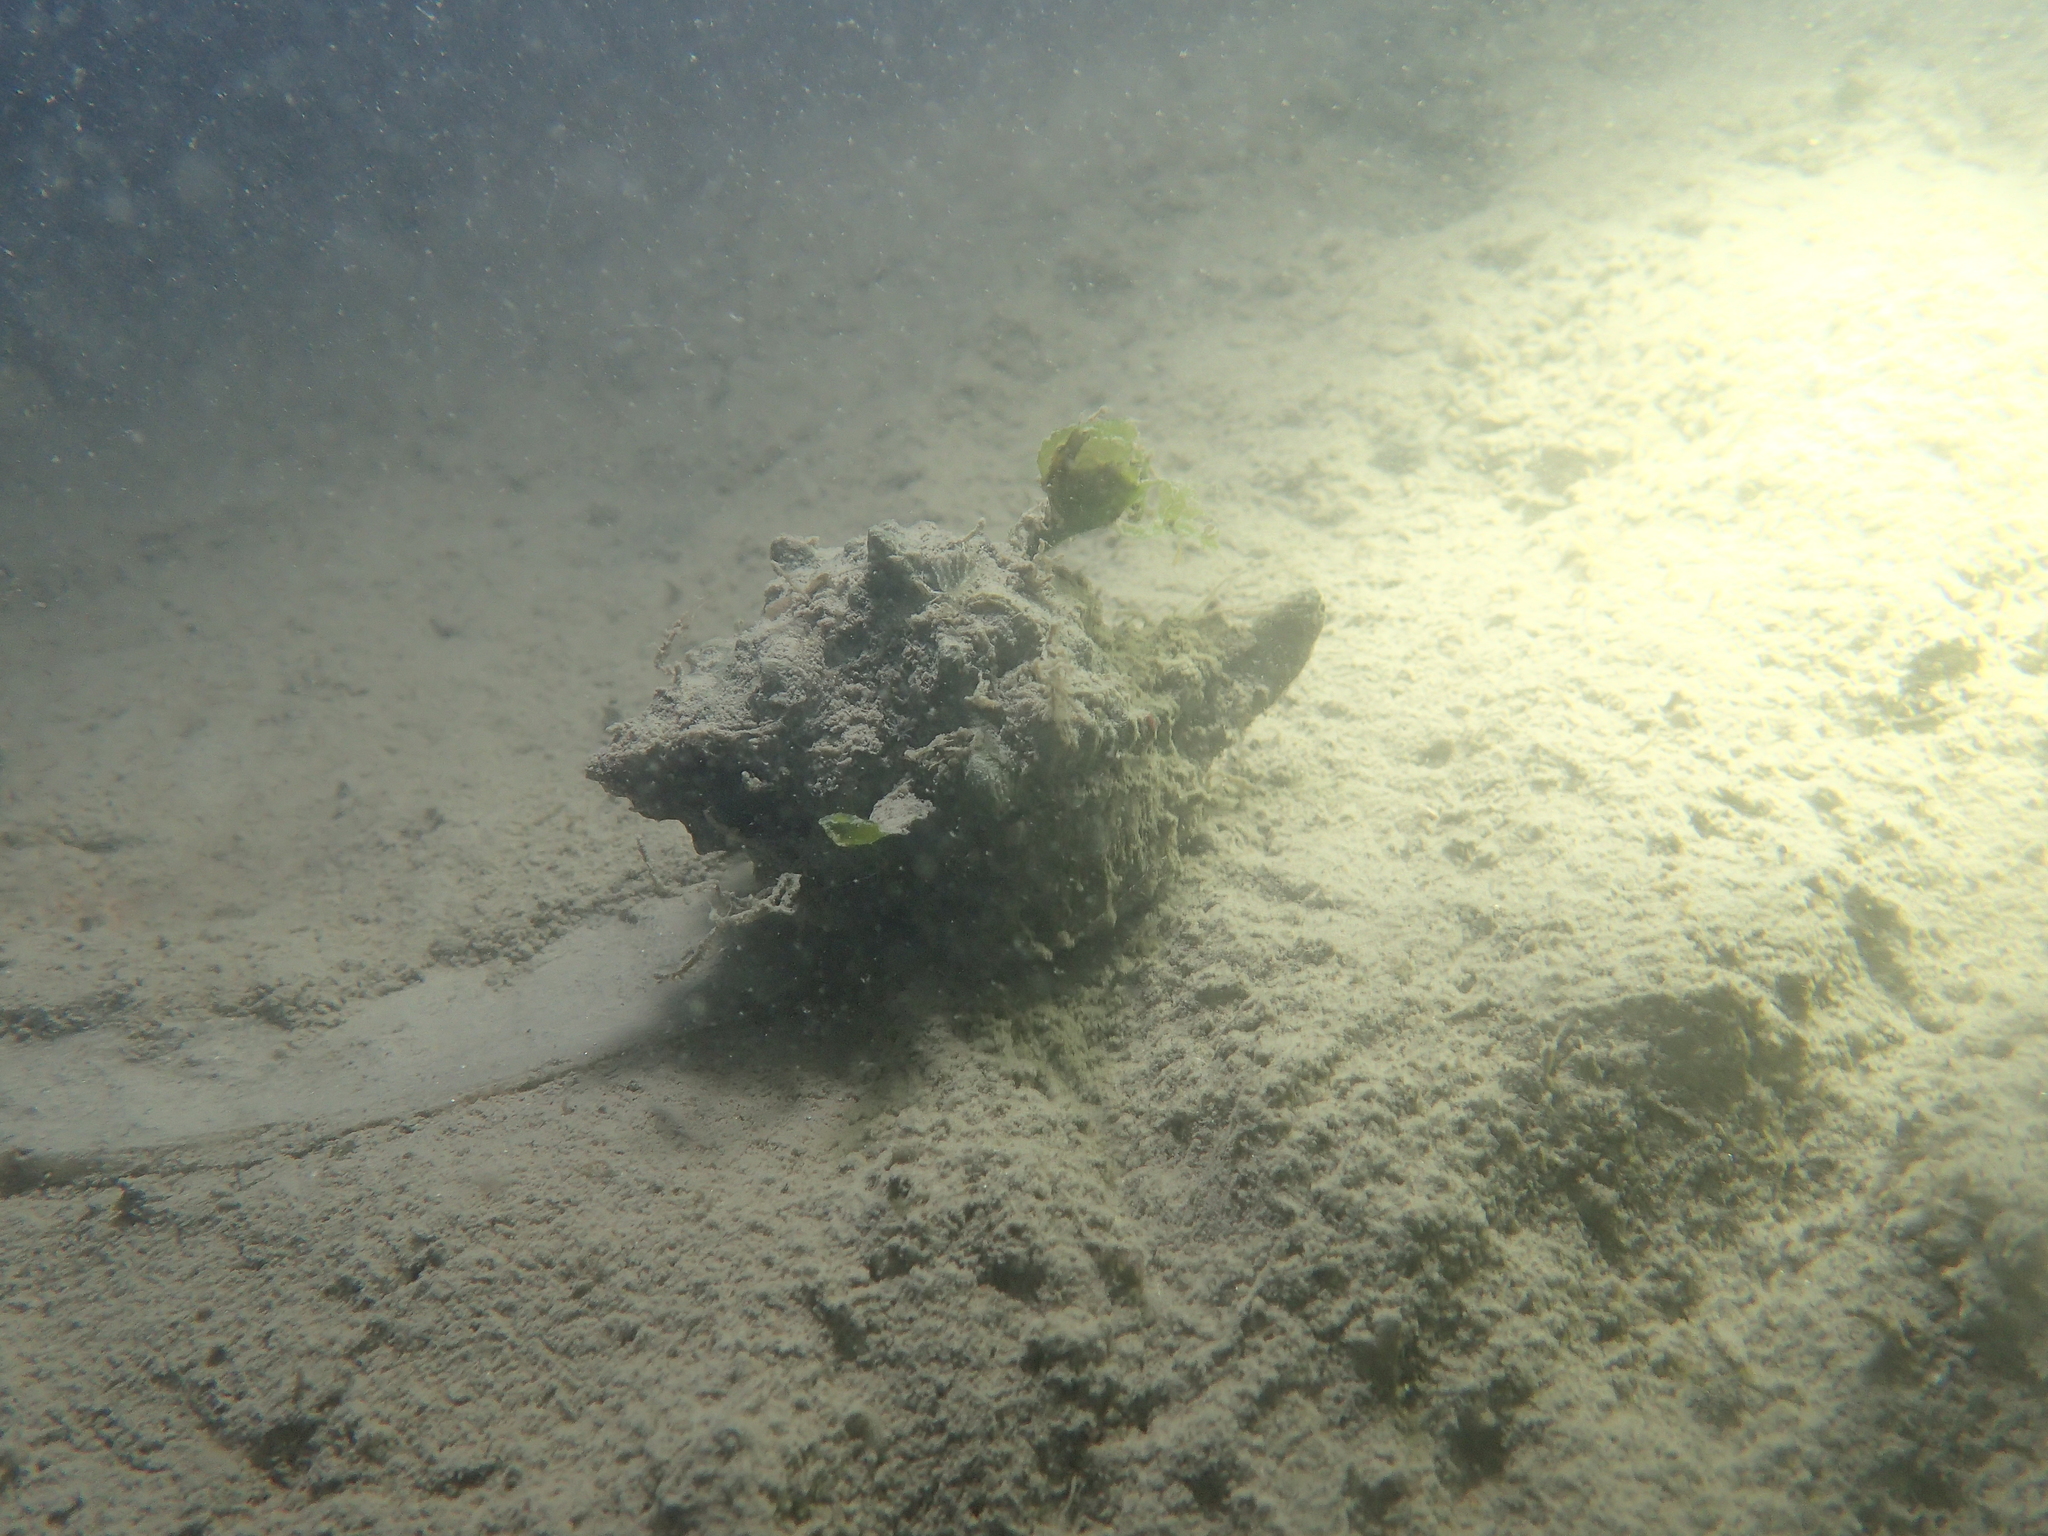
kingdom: Animalia
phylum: Mollusca
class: Gastropoda
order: Neogastropoda
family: Muricidae
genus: Hexaplex
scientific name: Hexaplex trunculus
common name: Banded dye-murex
